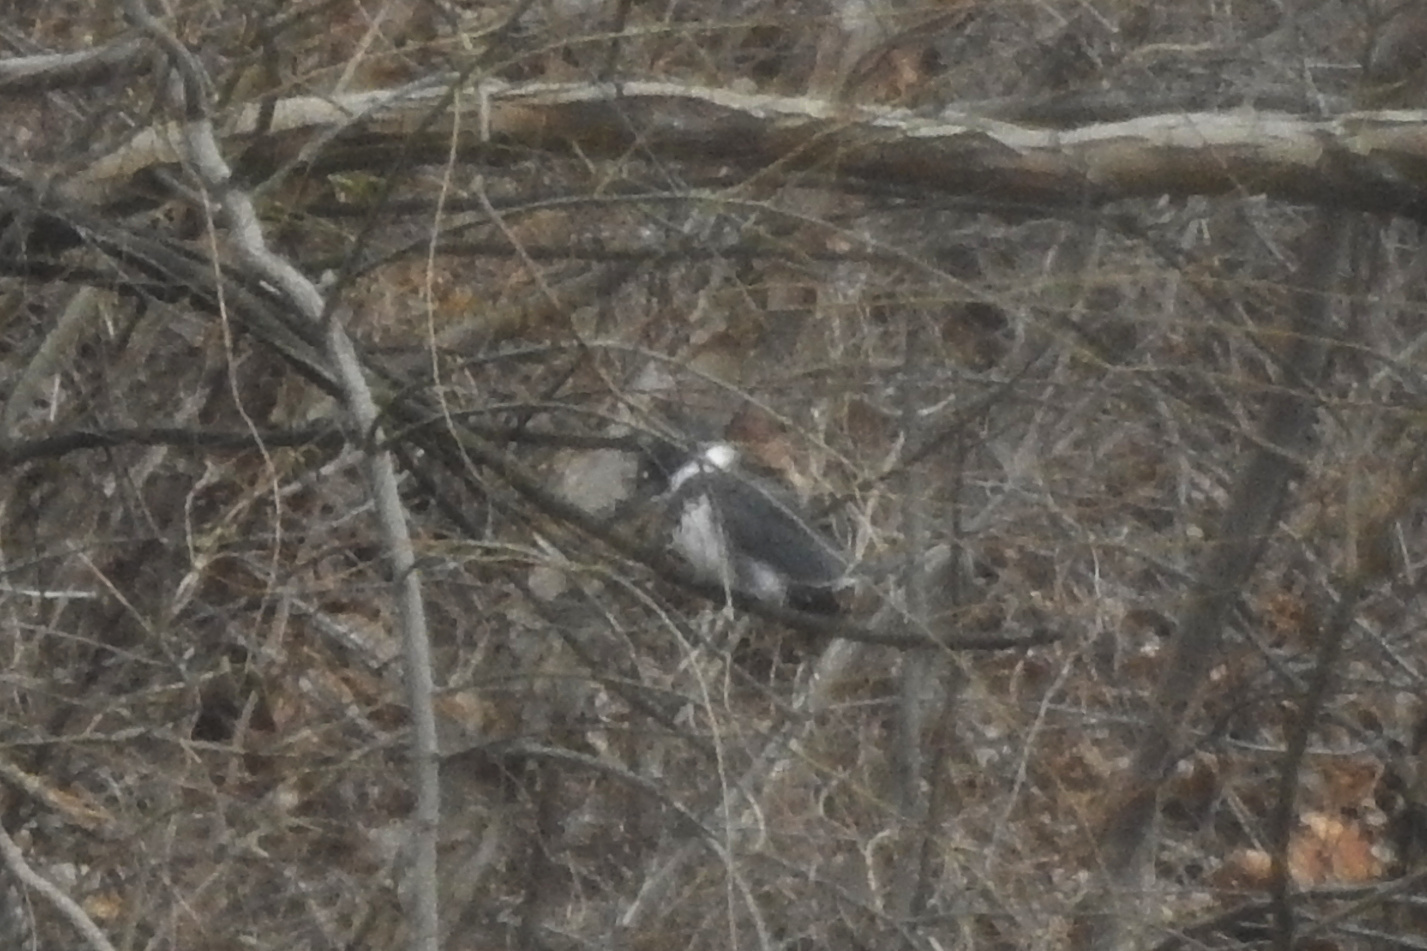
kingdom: Animalia
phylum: Chordata
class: Aves
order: Coraciiformes
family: Alcedinidae
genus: Megaceryle
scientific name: Megaceryle alcyon
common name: Belted kingfisher
